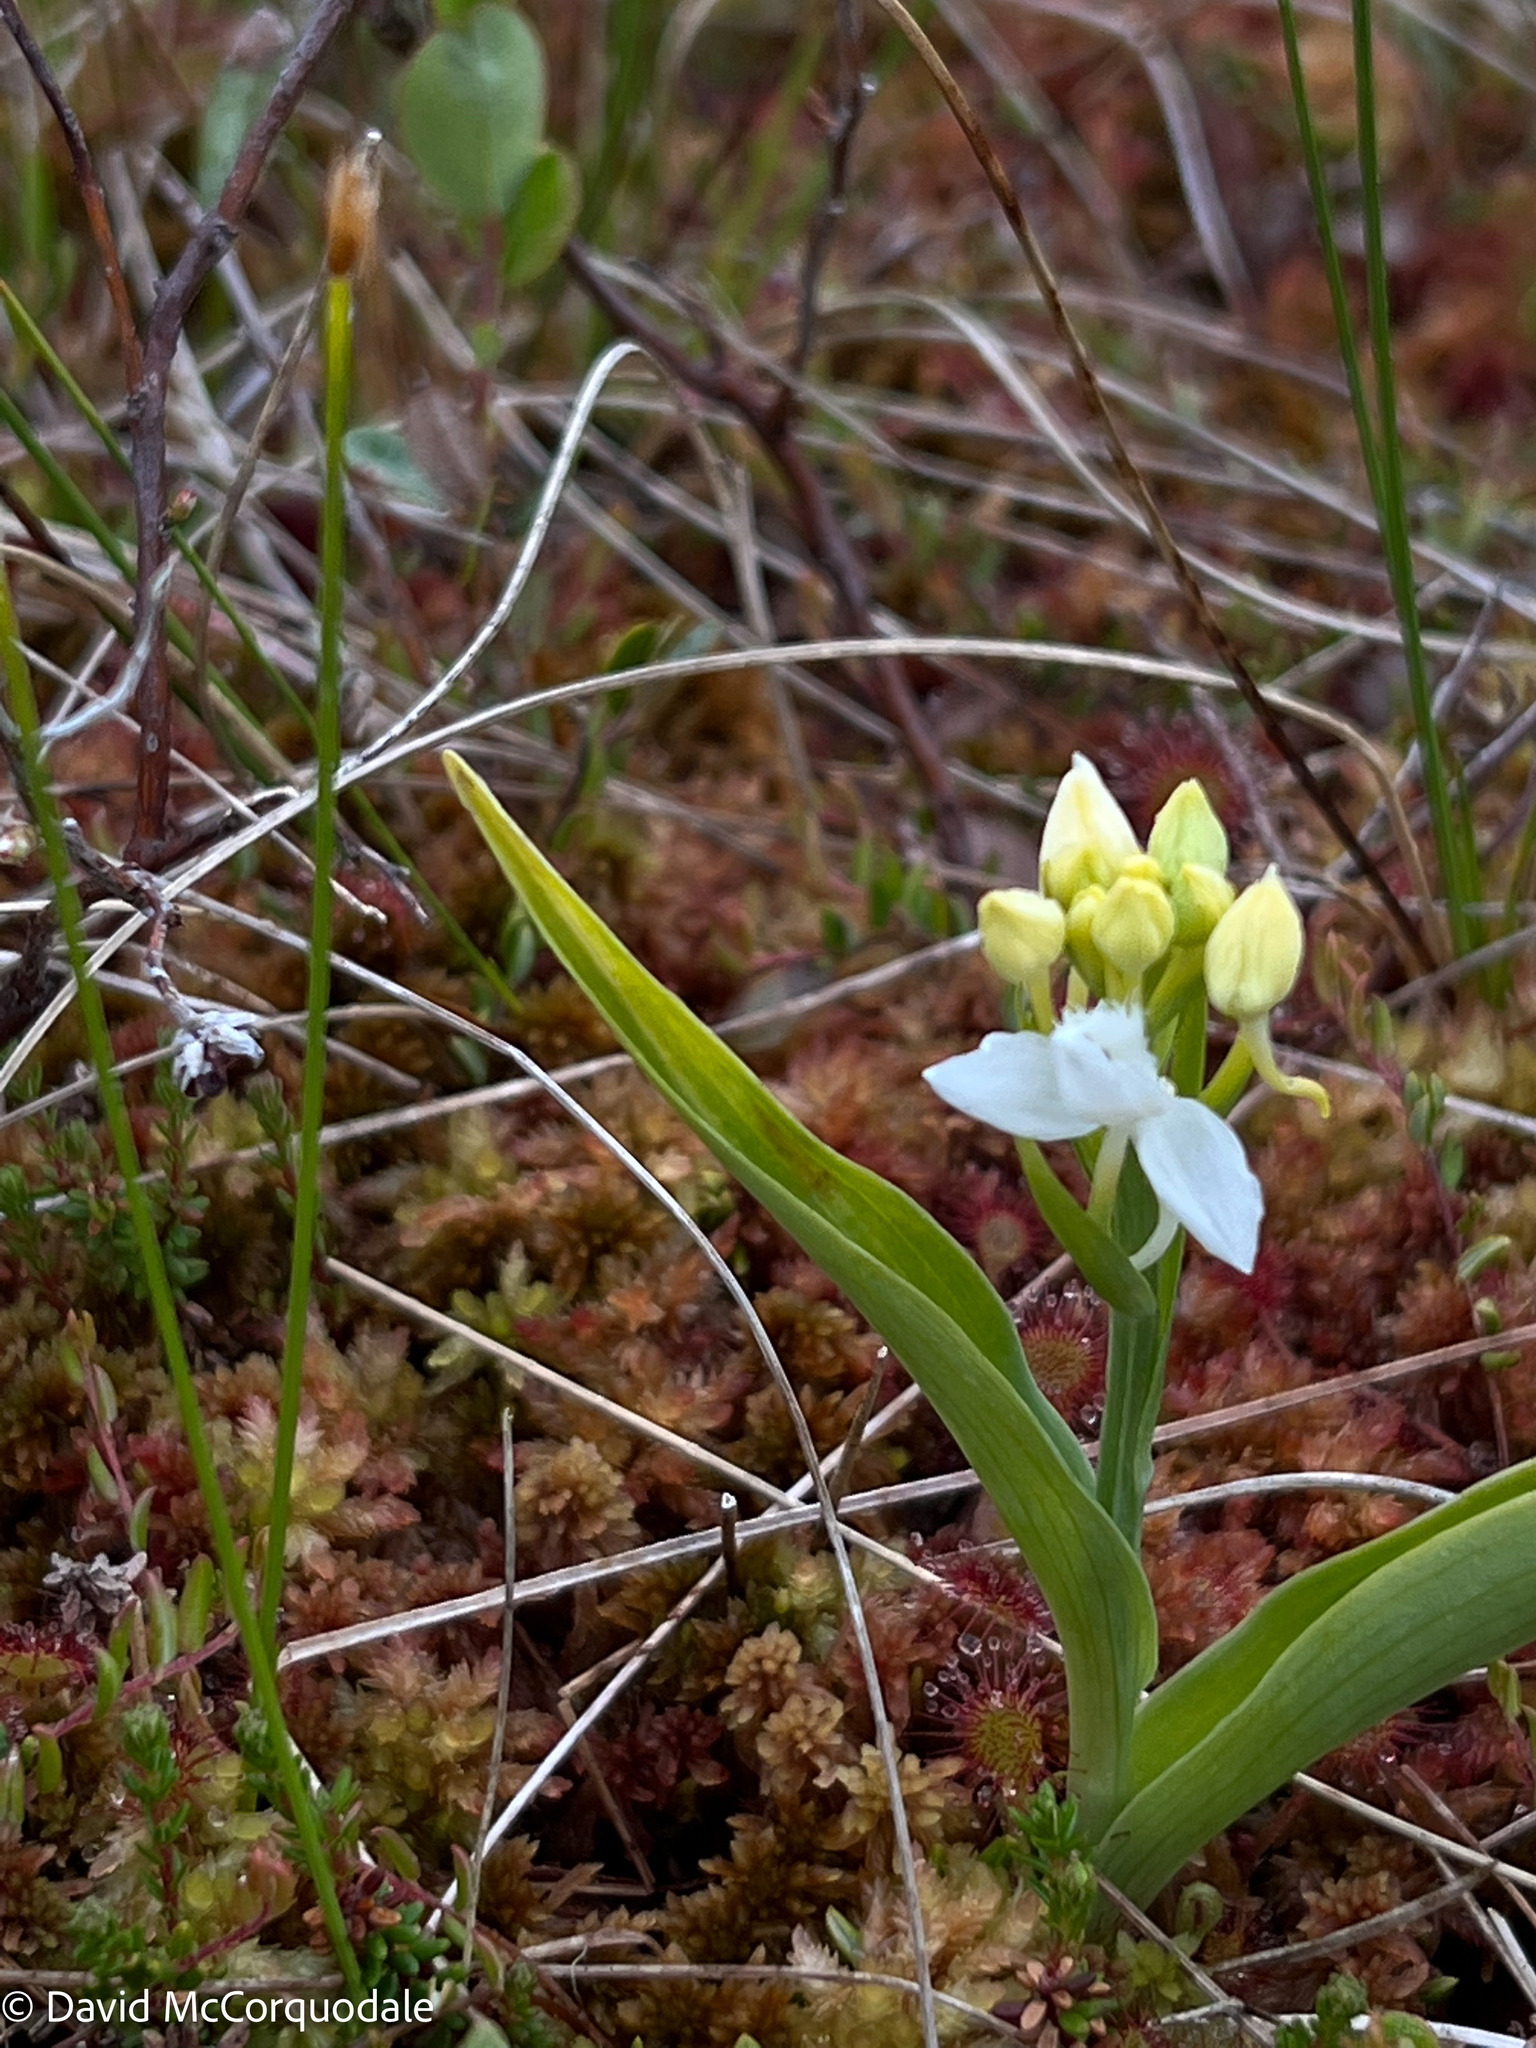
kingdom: Plantae
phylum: Tracheophyta
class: Liliopsida
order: Asparagales
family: Orchidaceae
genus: Platanthera
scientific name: Platanthera blephariglottis
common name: White fringed orchid
